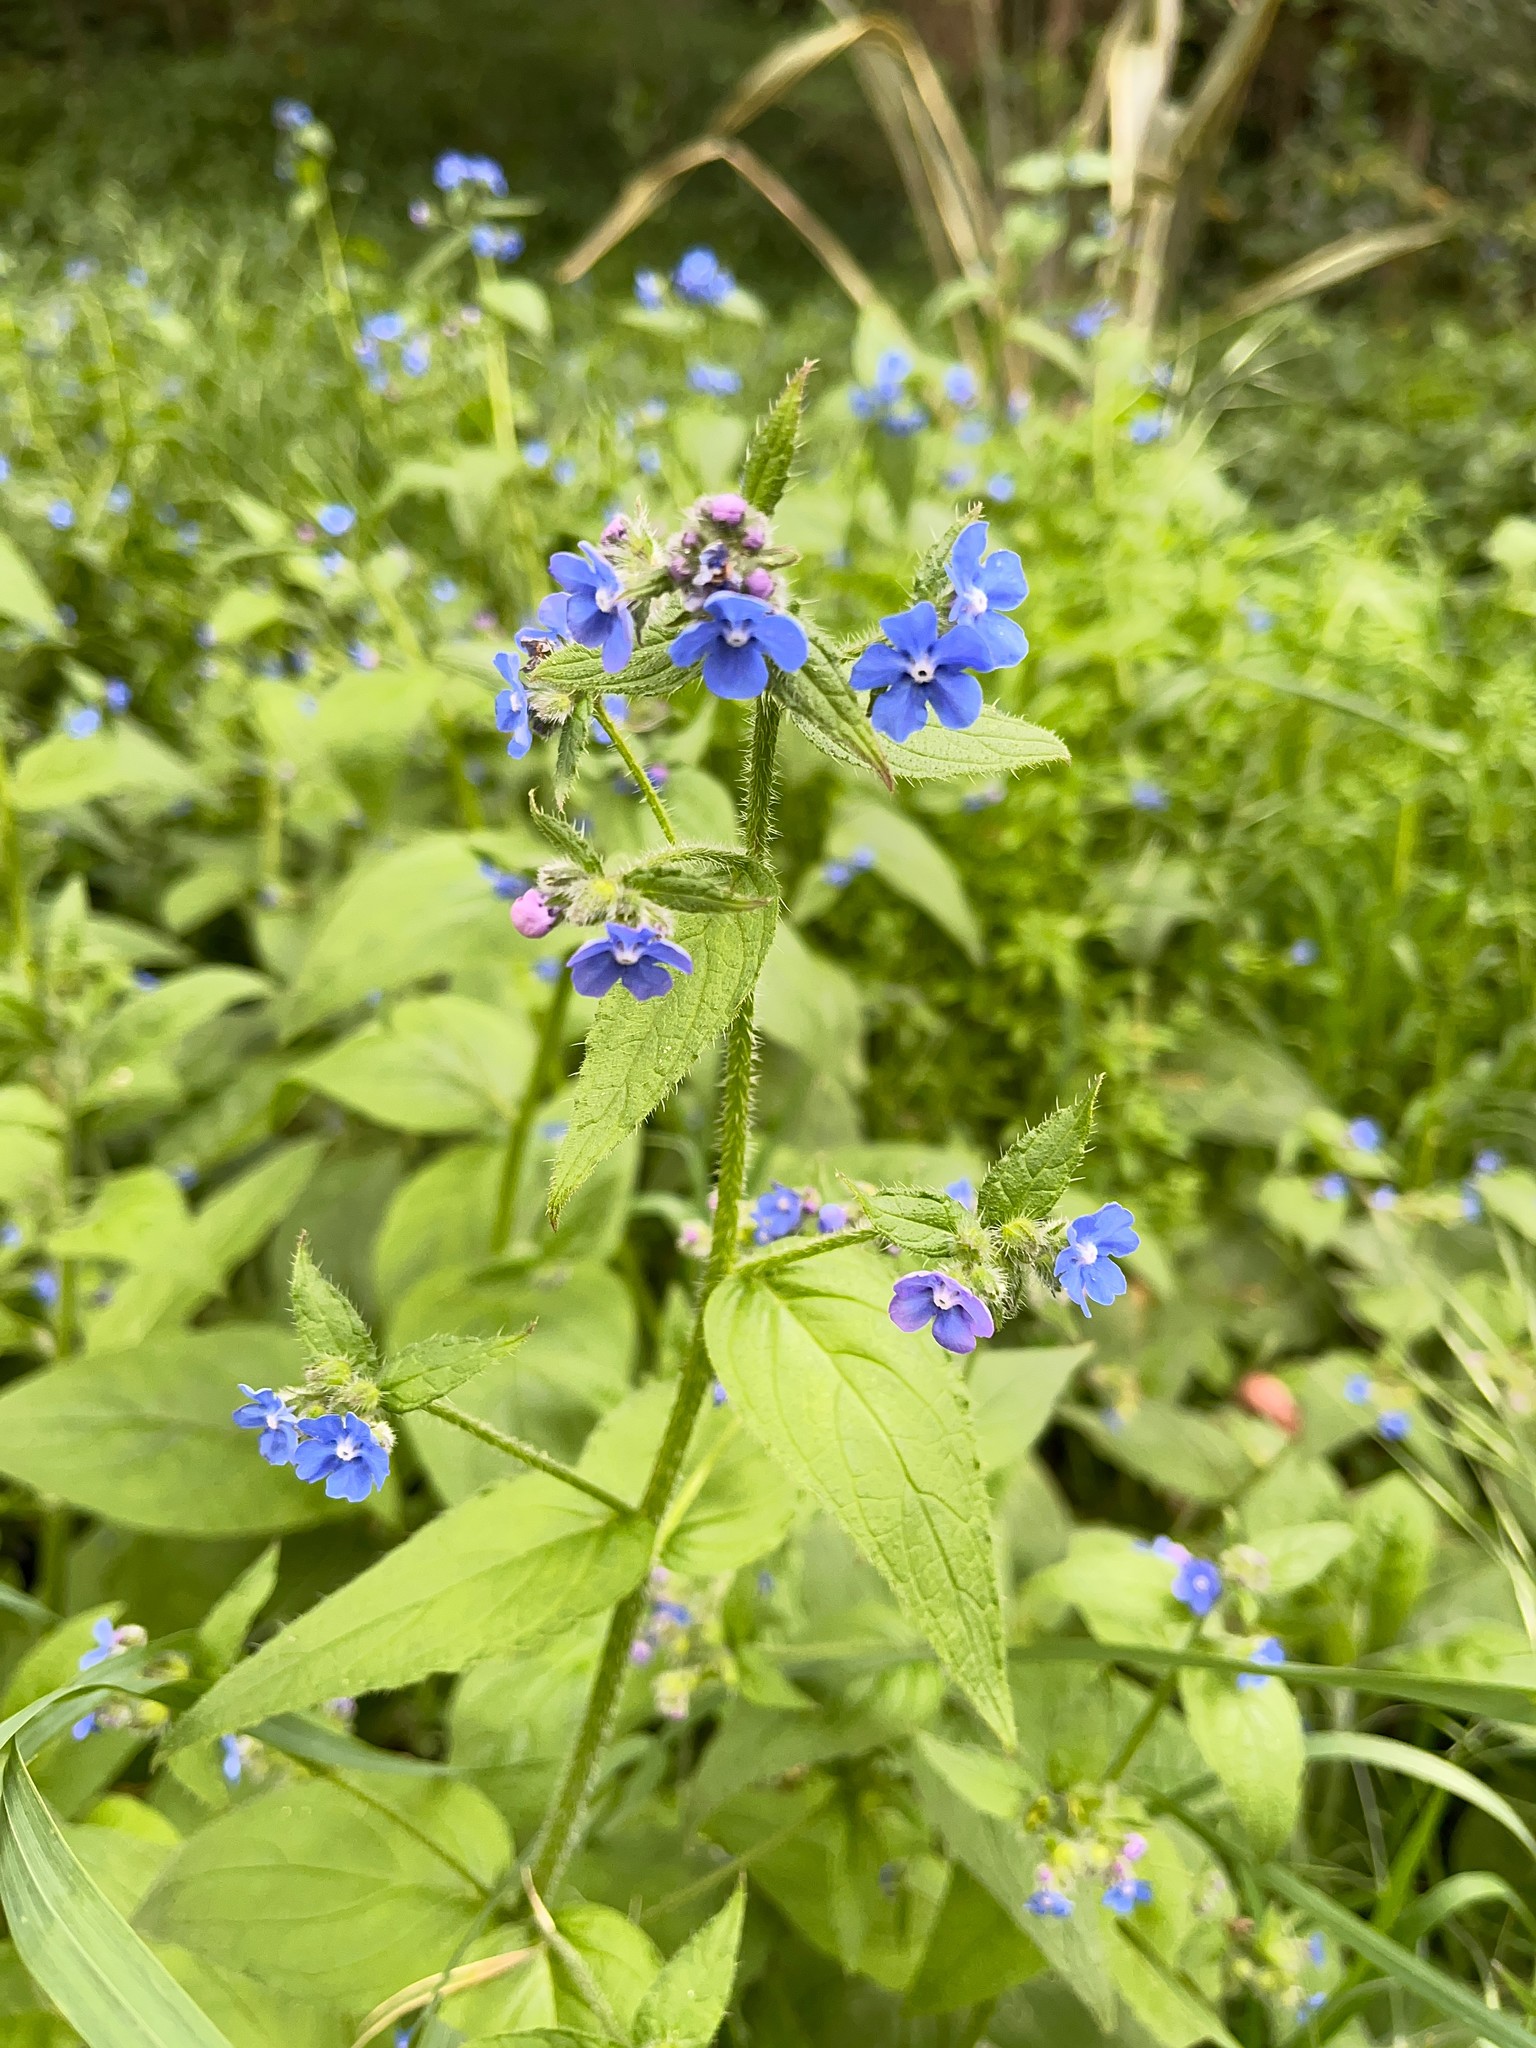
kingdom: Plantae
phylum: Tracheophyta
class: Magnoliopsida
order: Boraginales
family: Boraginaceae
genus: Pentaglottis
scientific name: Pentaglottis sempervirens
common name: Green alkanet
